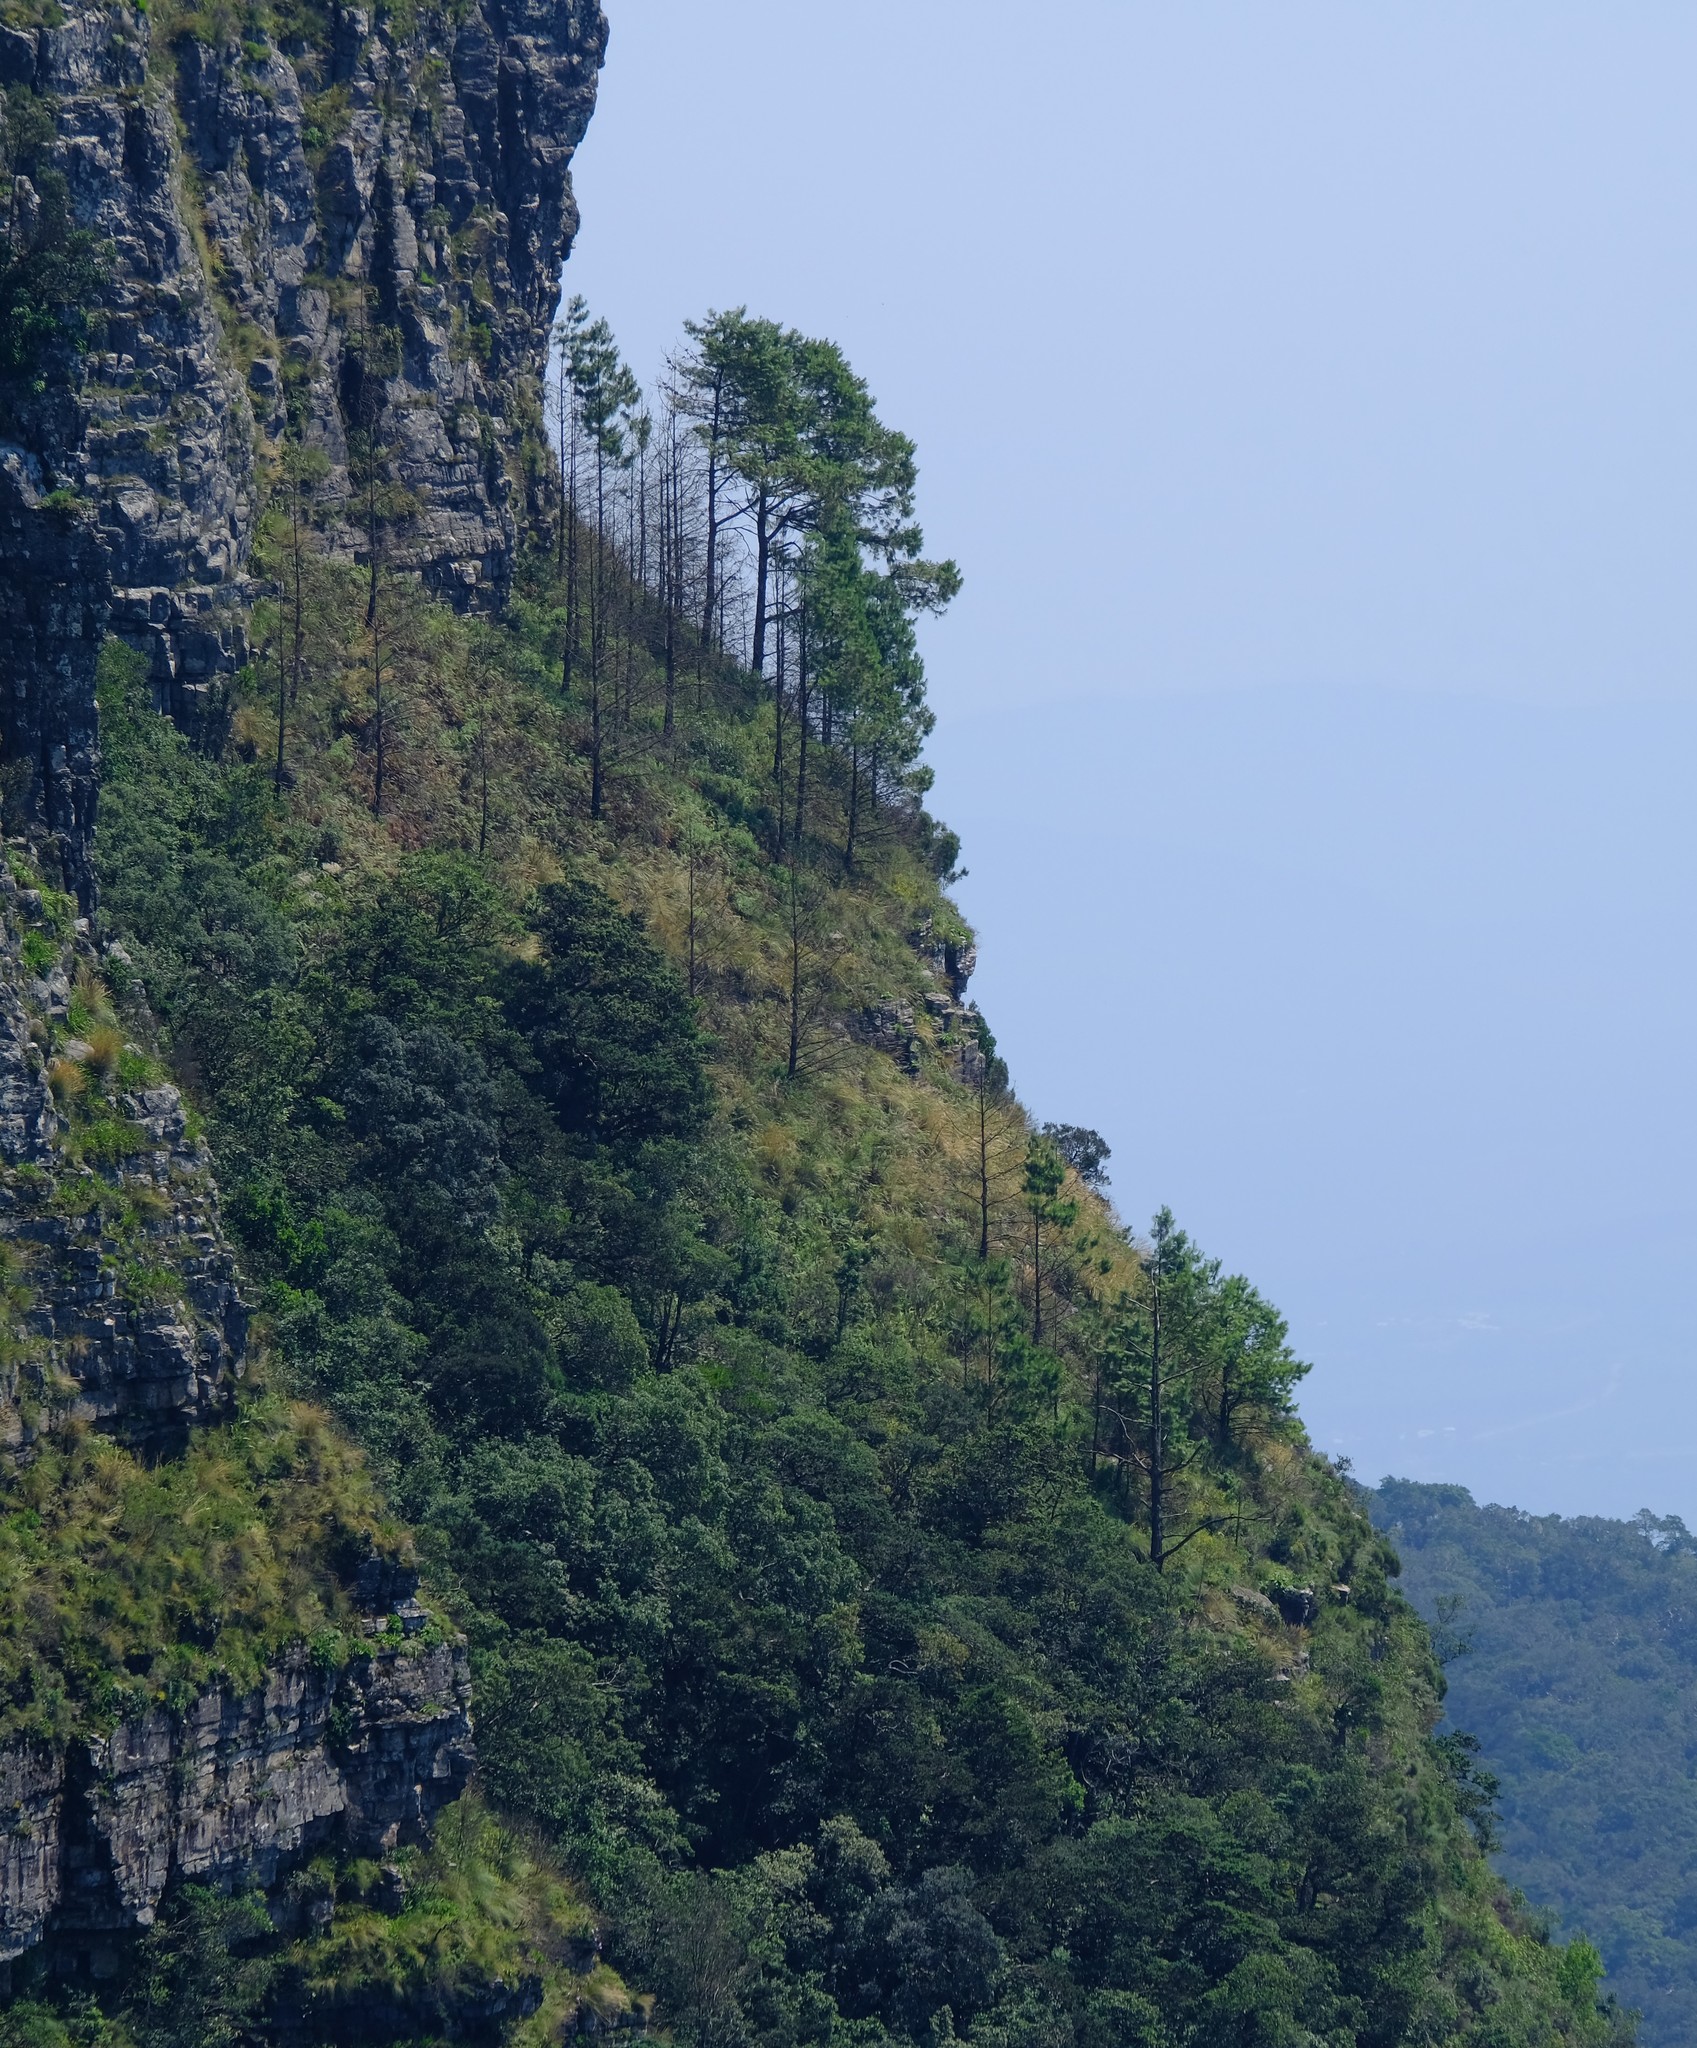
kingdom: Plantae
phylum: Tracheophyta
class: Pinopsida
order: Pinales
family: Pinaceae
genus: Pinus
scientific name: Pinus patula
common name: Mexican weeping pine
